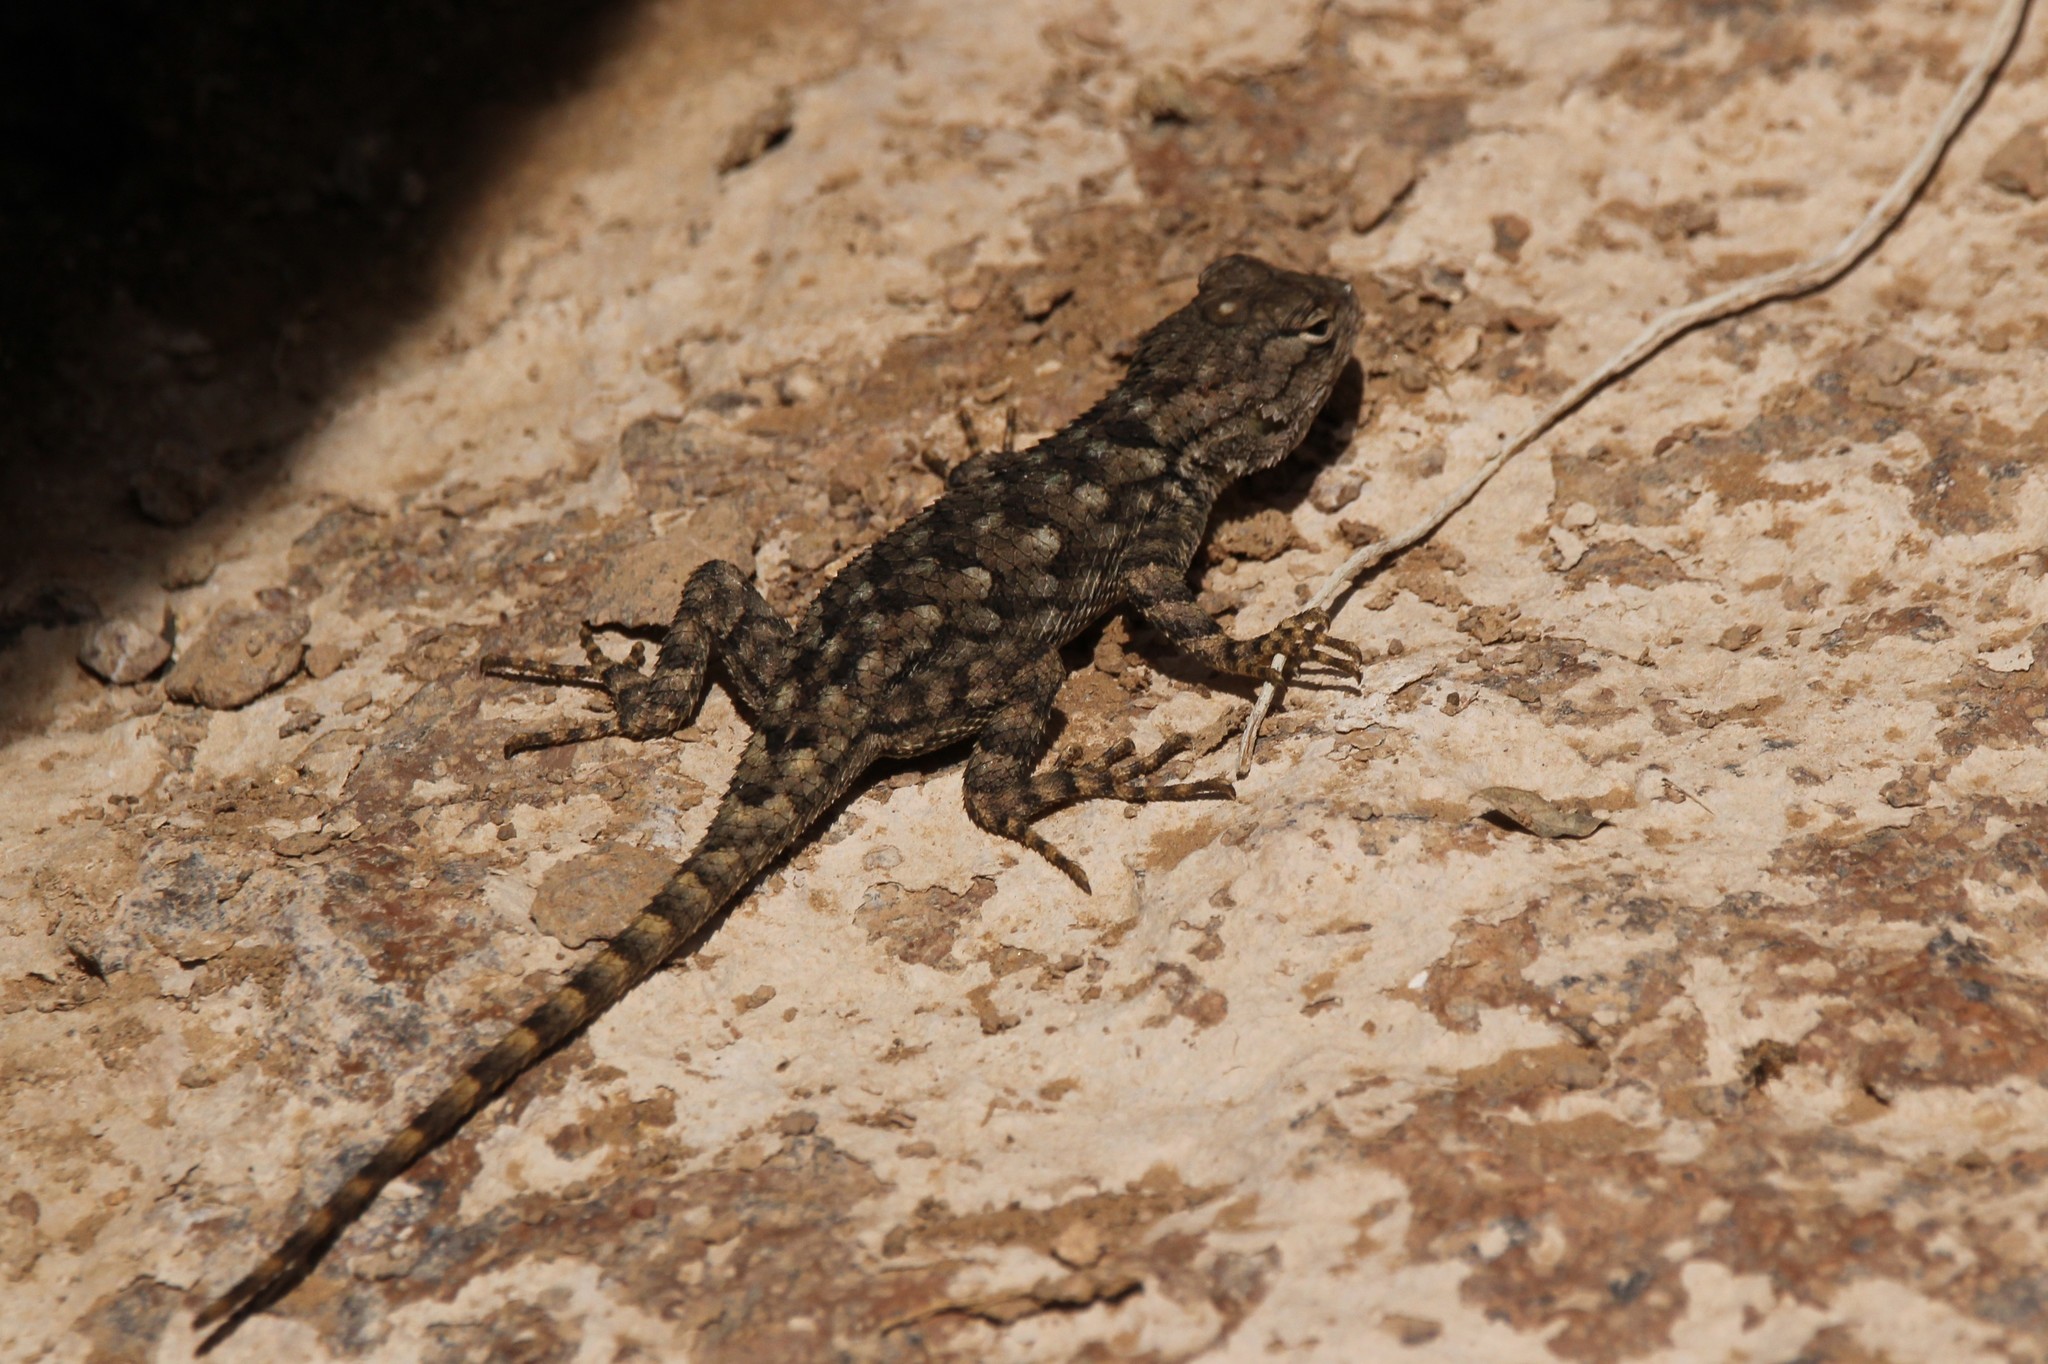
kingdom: Animalia
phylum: Chordata
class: Squamata
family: Phrynosomatidae
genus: Sceloporus
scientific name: Sceloporus clarkii
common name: Clark's spiny lizard
